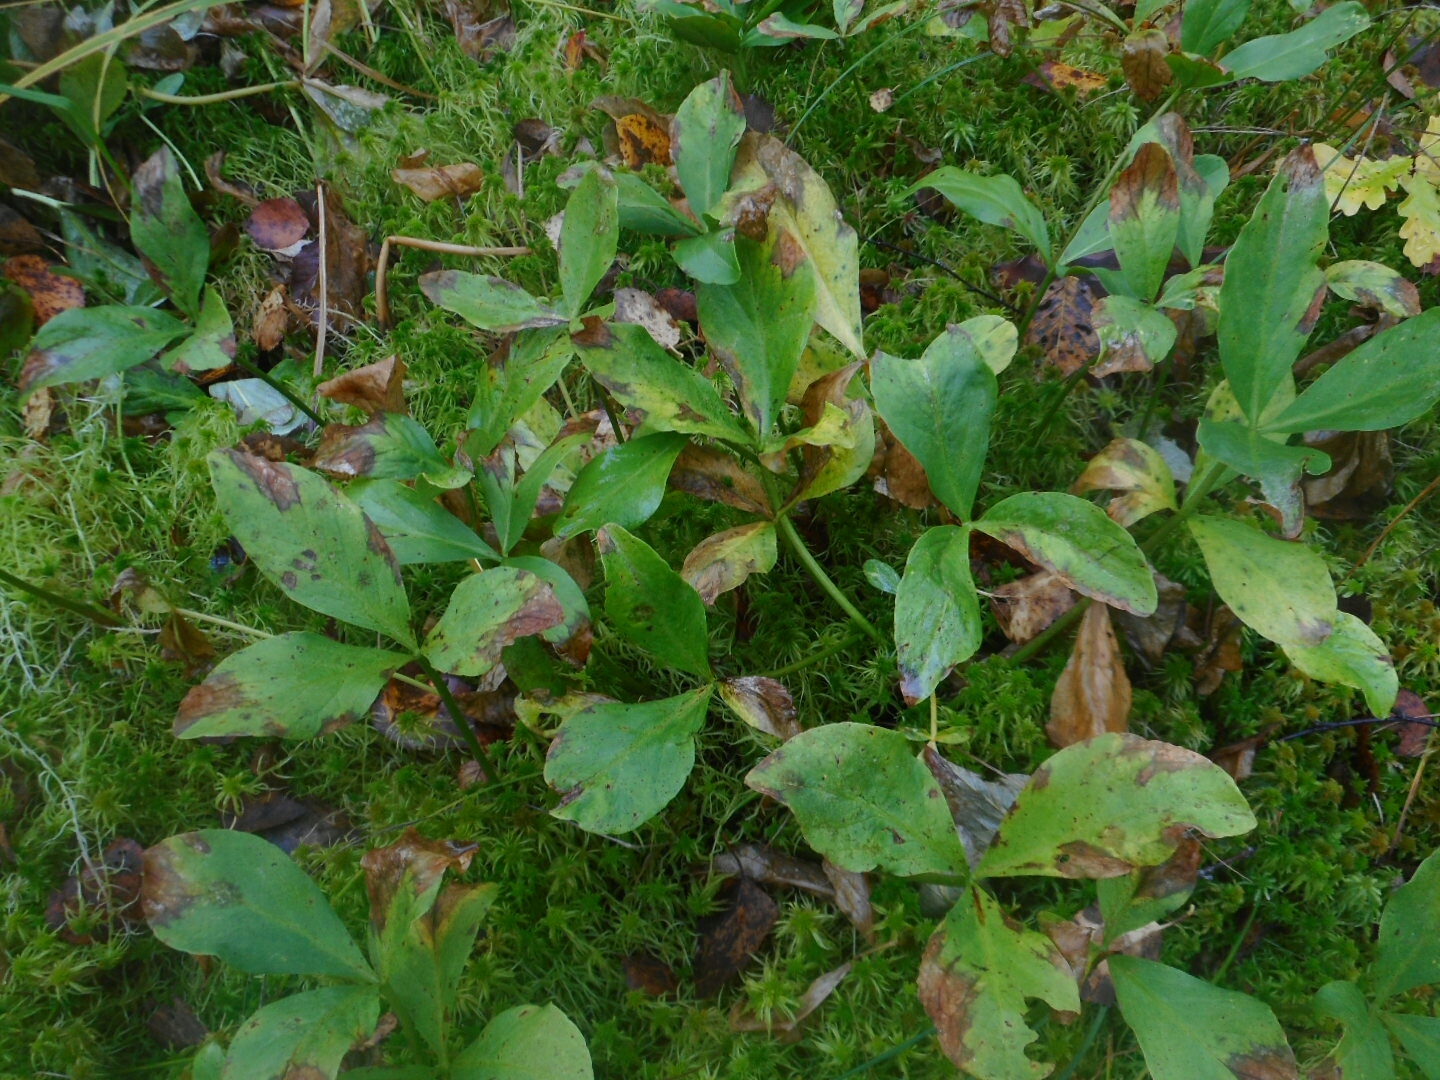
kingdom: Plantae
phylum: Tracheophyta
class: Magnoliopsida
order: Asterales
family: Menyanthaceae
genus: Menyanthes
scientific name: Menyanthes trifoliata
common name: Bogbean
